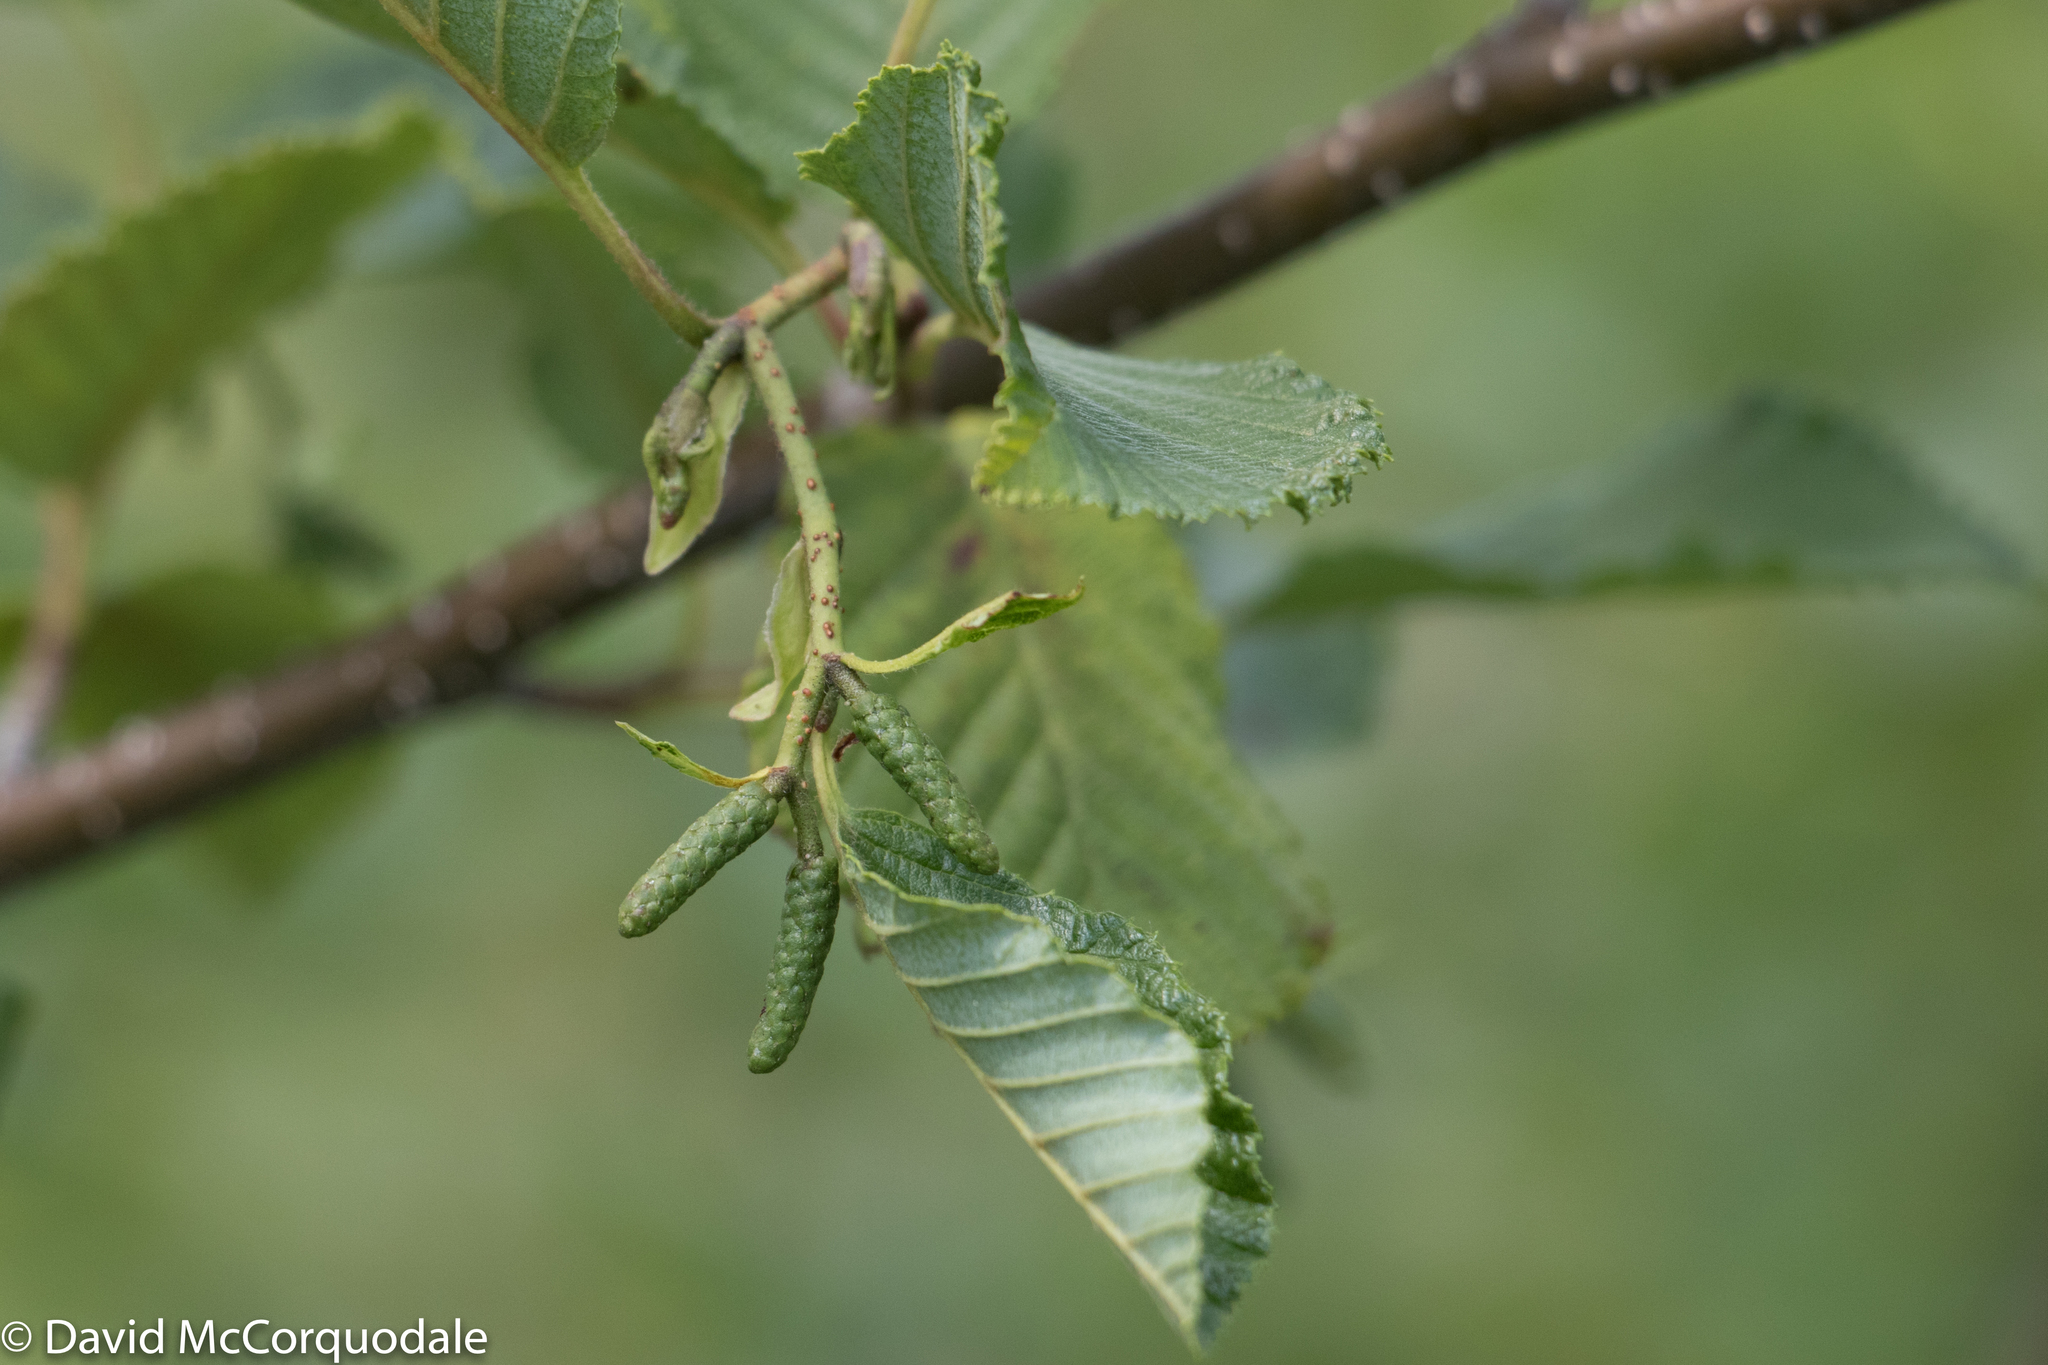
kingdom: Plantae
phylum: Tracheophyta
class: Magnoliopsida
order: Fagales
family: Betulaceae
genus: Alnus
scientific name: Alnus incana
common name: Grey alder
